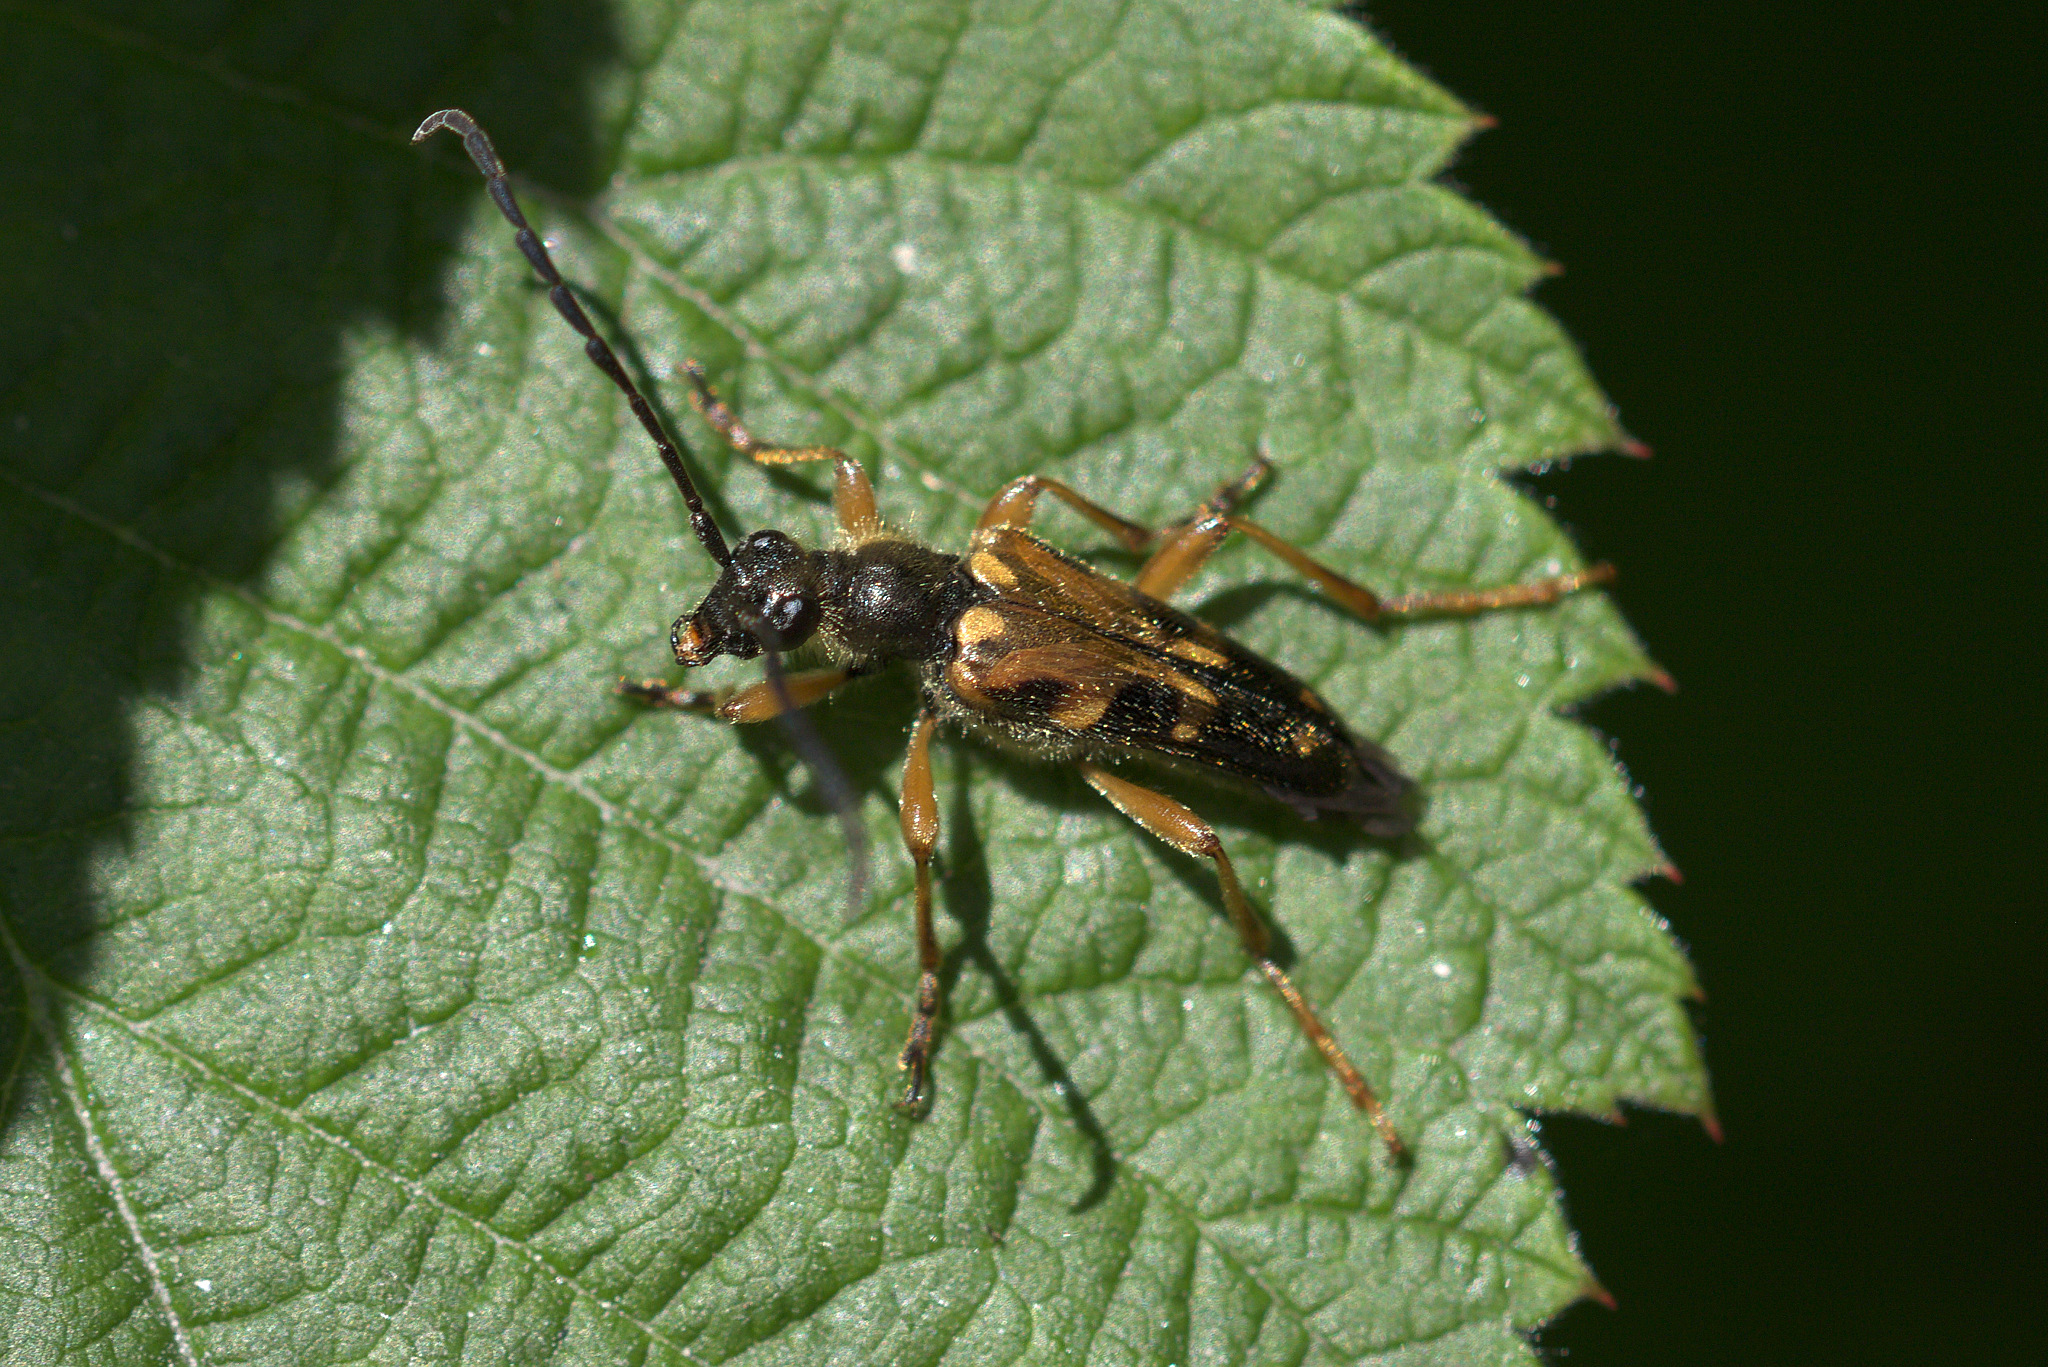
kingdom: Animalia
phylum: Arthropoda
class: Insecta
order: Coleoptera
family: Cerambycidae
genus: Xestoleptura
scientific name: Xestoleptura crassipes
